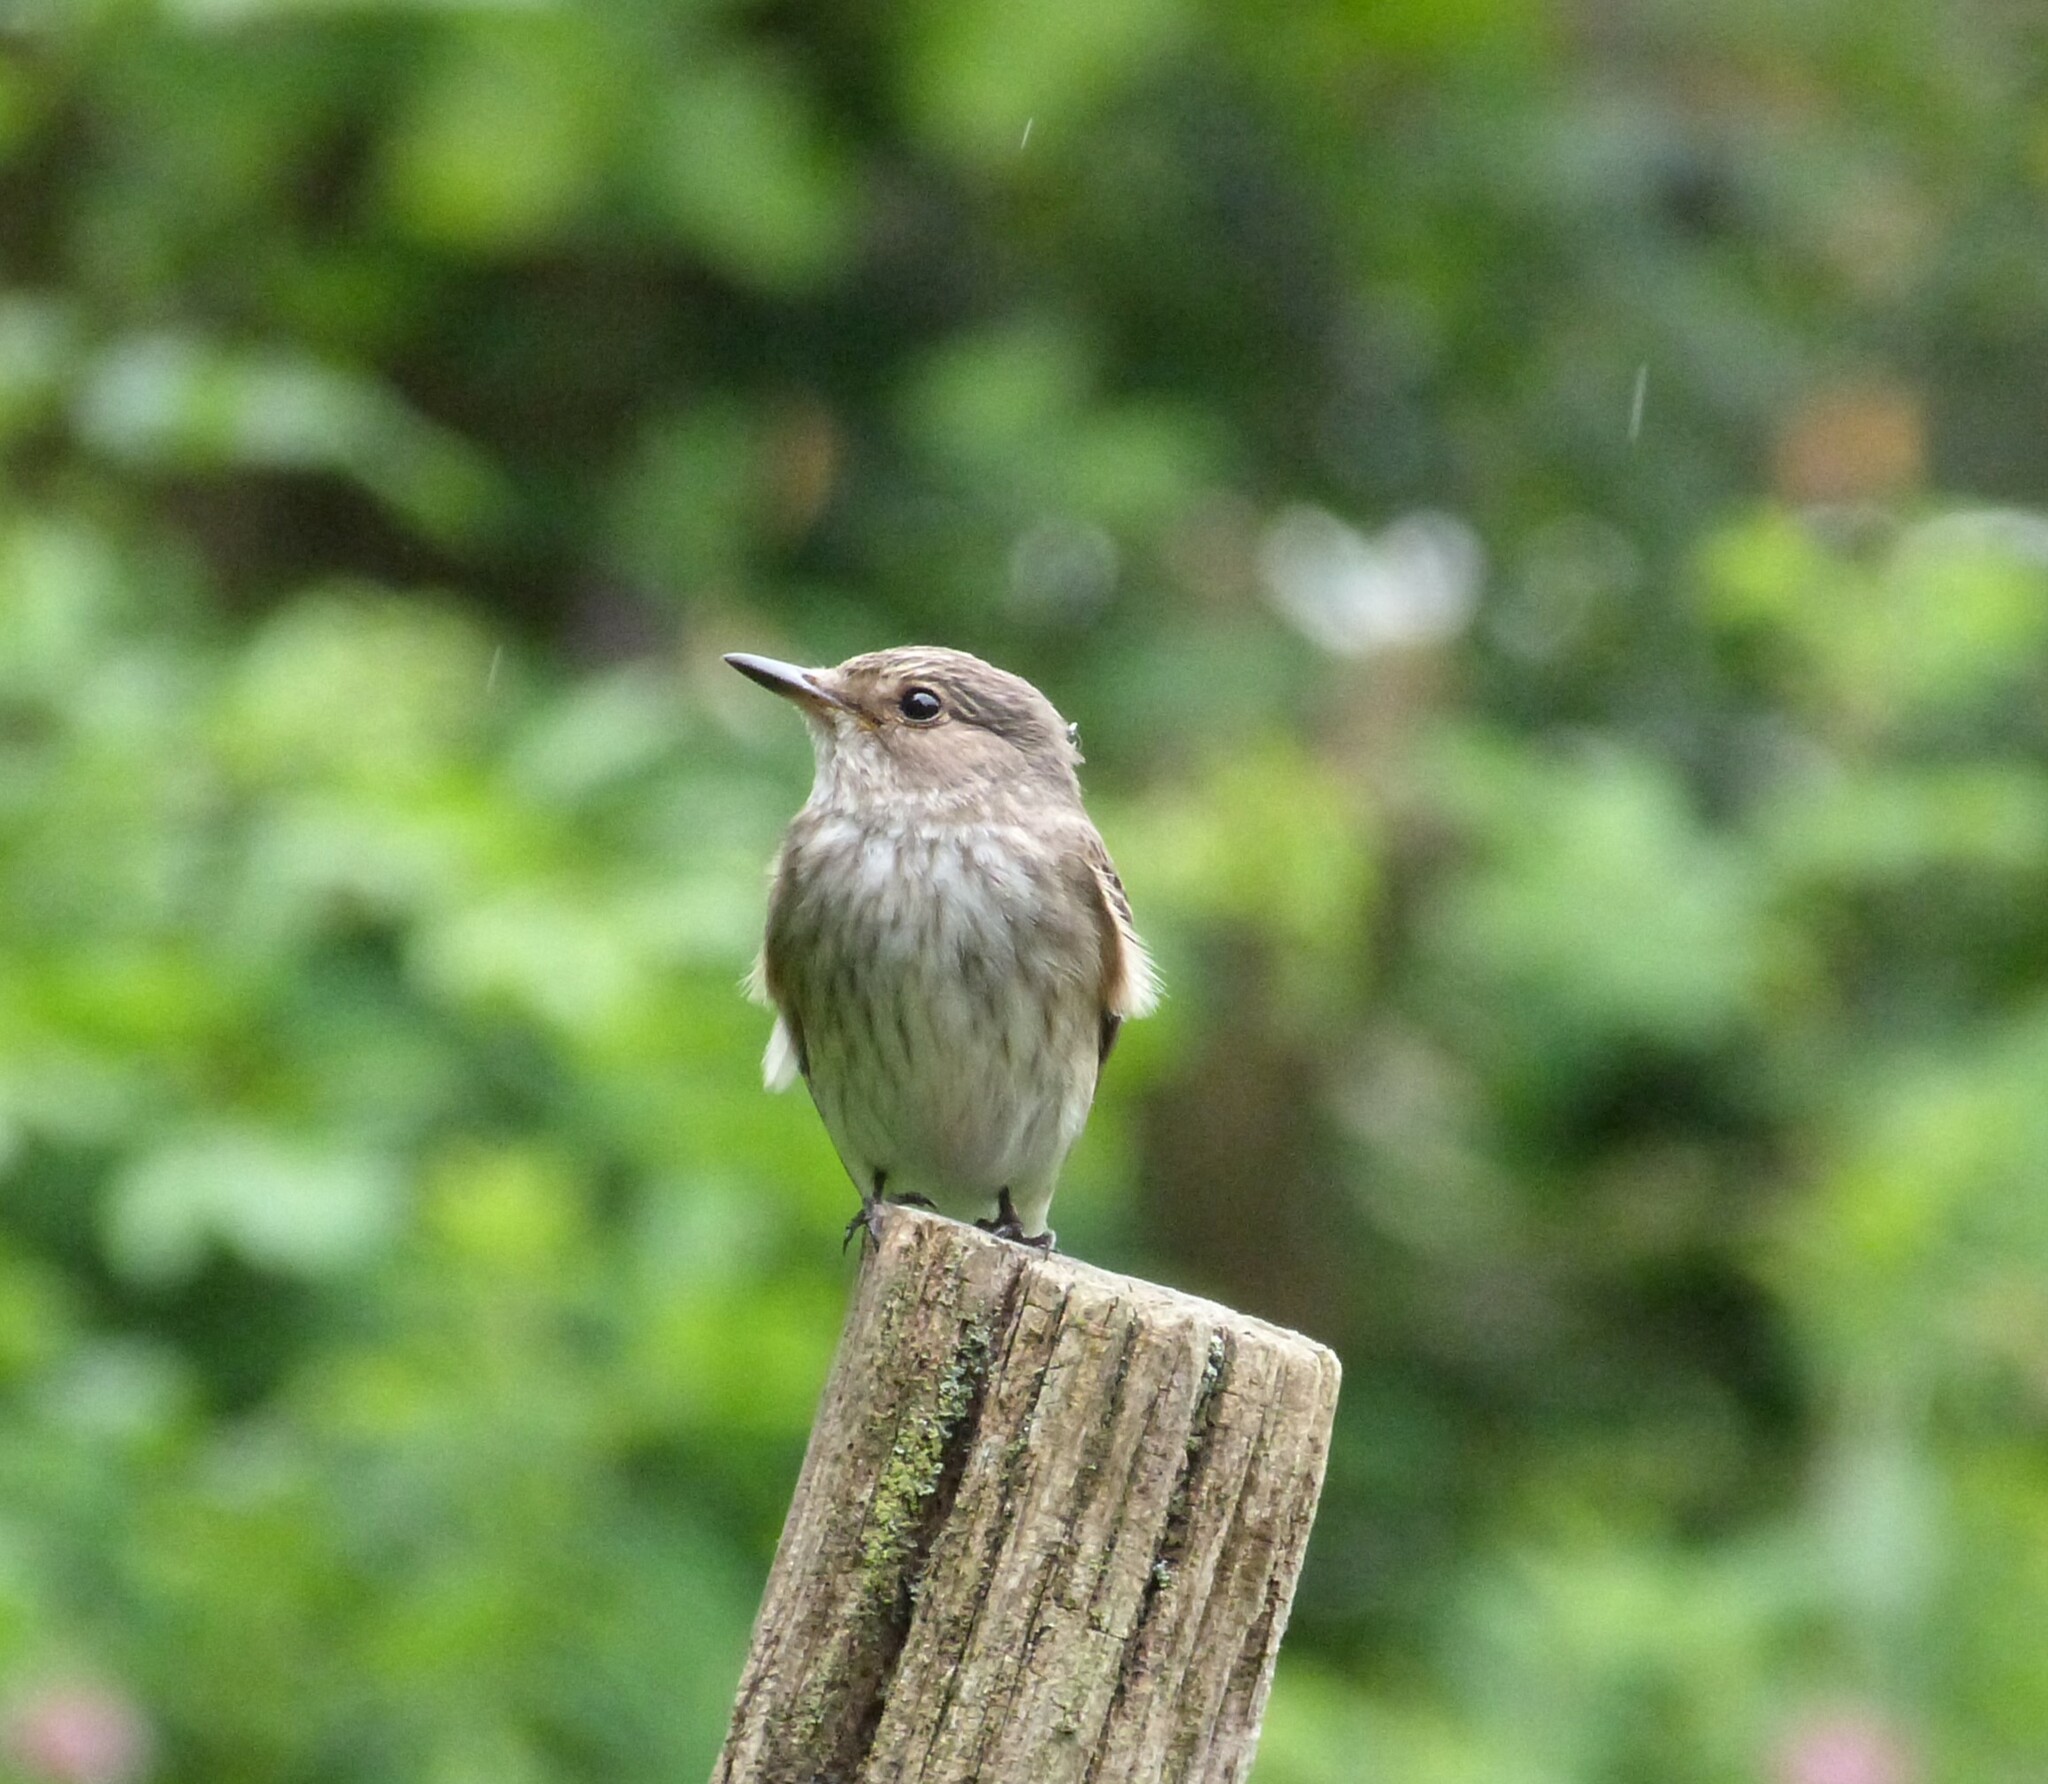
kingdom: Animalia
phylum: Chordata
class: Aves
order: Passeriformes
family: Muscicapidae
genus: Muscicapa
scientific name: Muscicapa striata
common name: Spotted flycatcher
